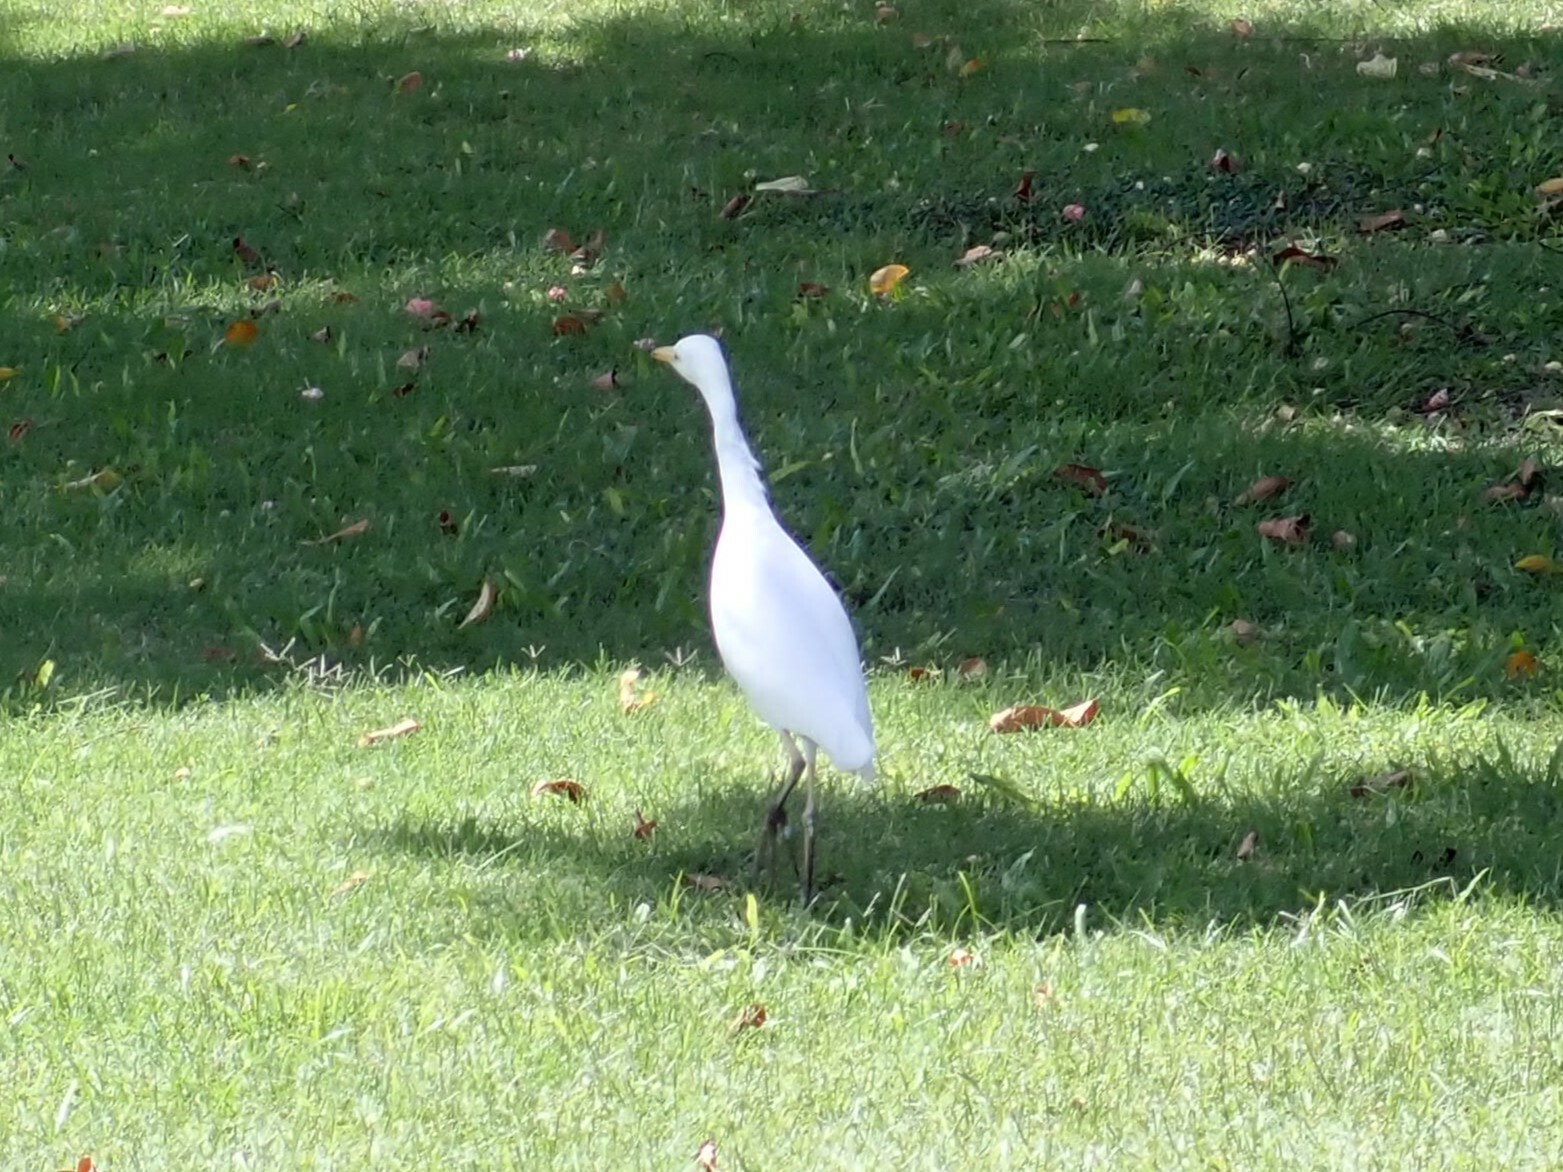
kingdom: Animalia
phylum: Chordata
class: Aves
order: Pelecaniformes
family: Ardeidae
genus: Bubulcus
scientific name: Bubulcus ibis
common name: Cattle egret
